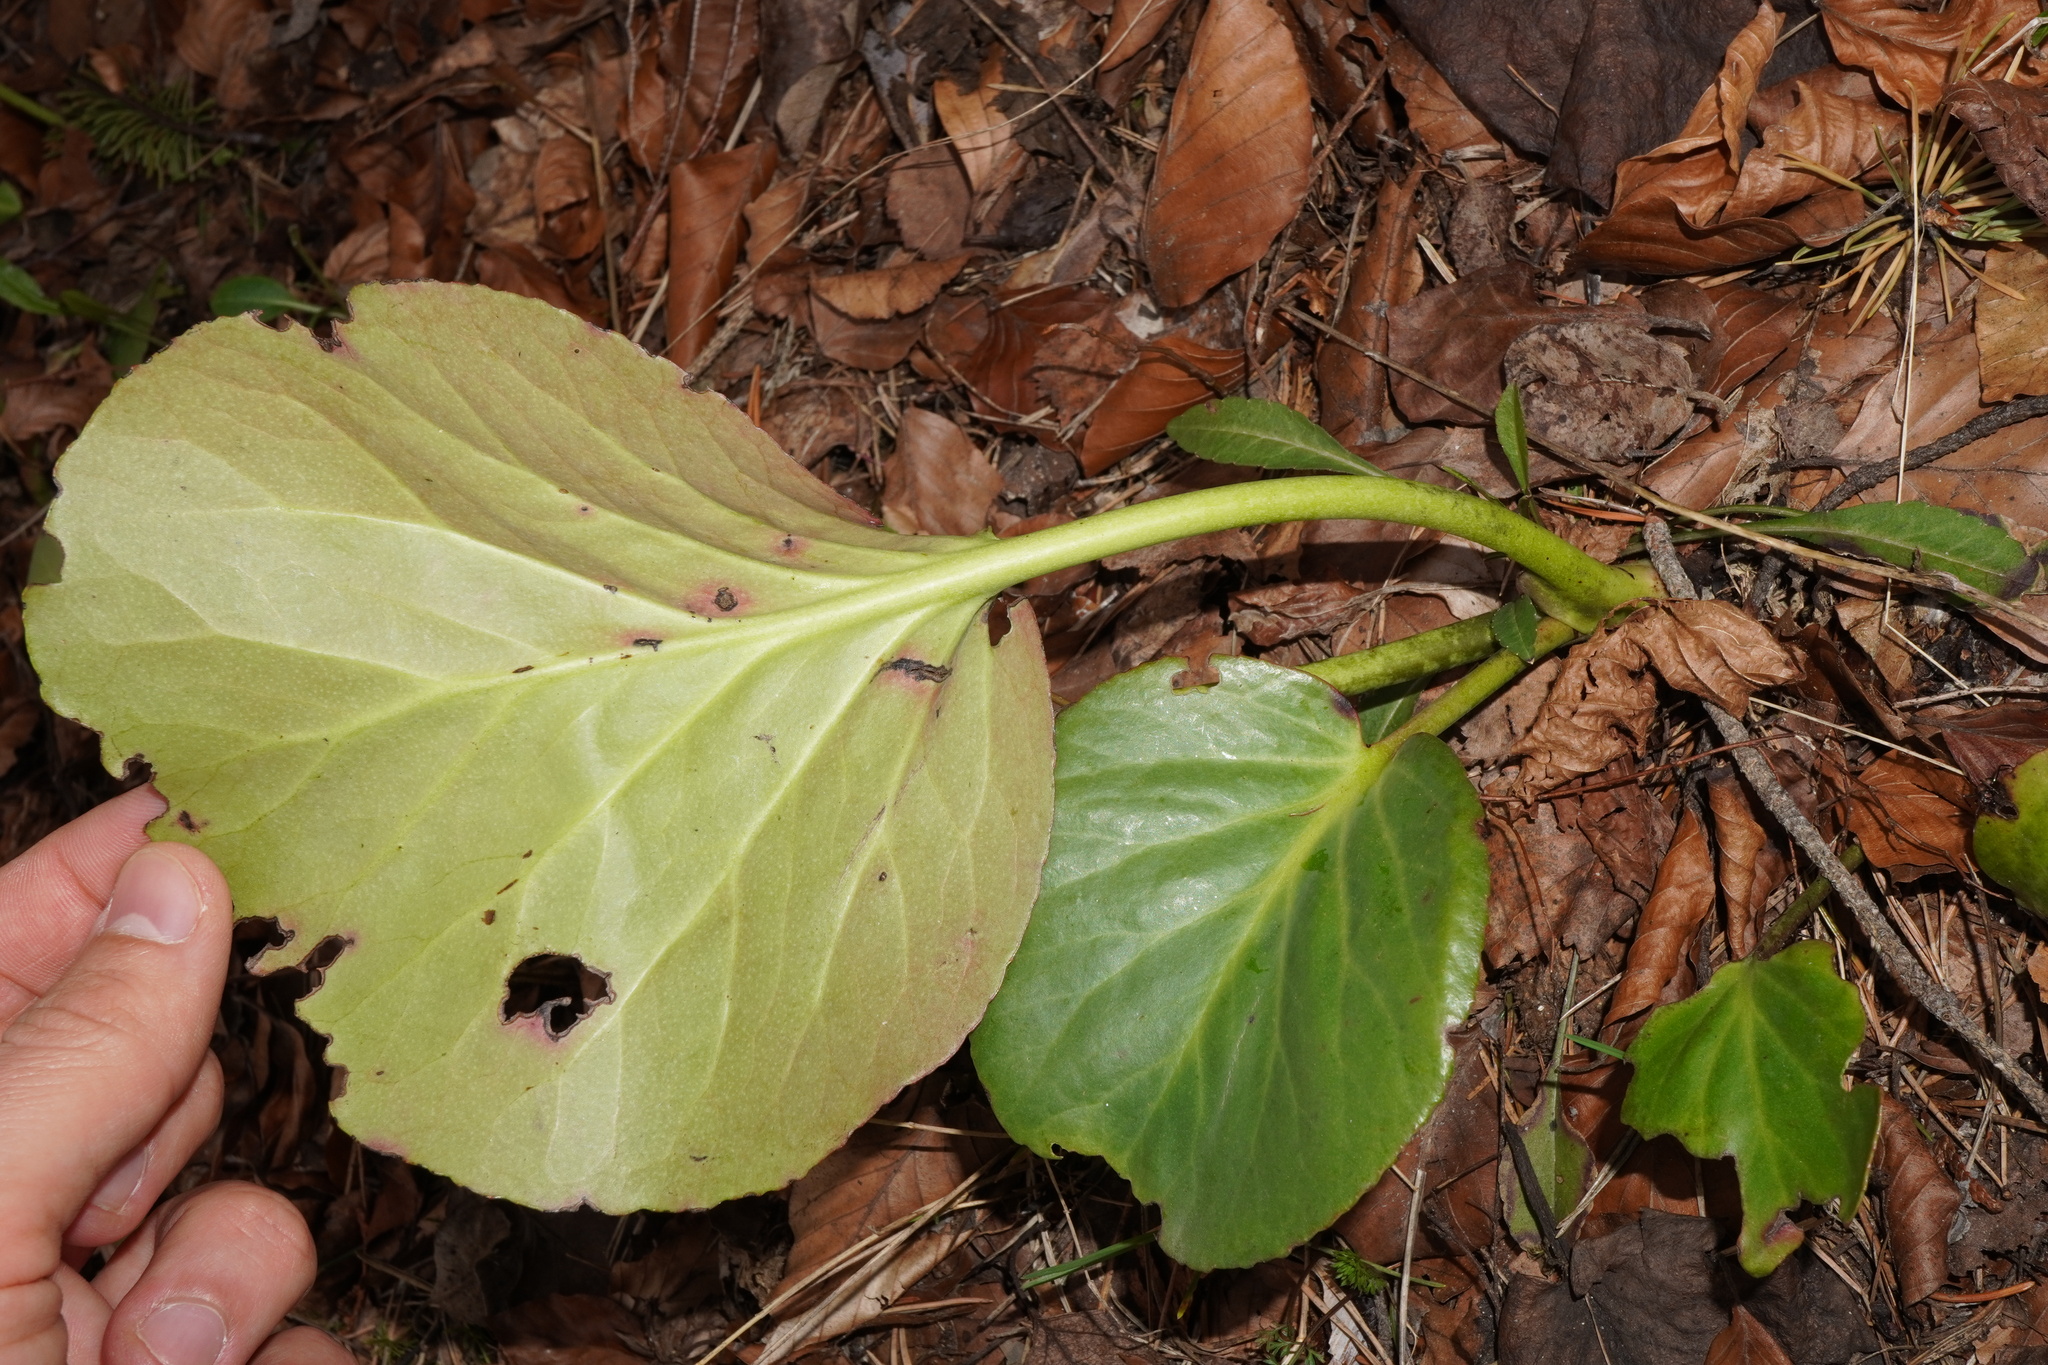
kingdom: Plantae
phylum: Tracheophyta
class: Magnoliopsida
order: Saxifragales
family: Saxifragaceae
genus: Bergenia
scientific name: Bergenia crassifolia
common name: Elephant-ears
